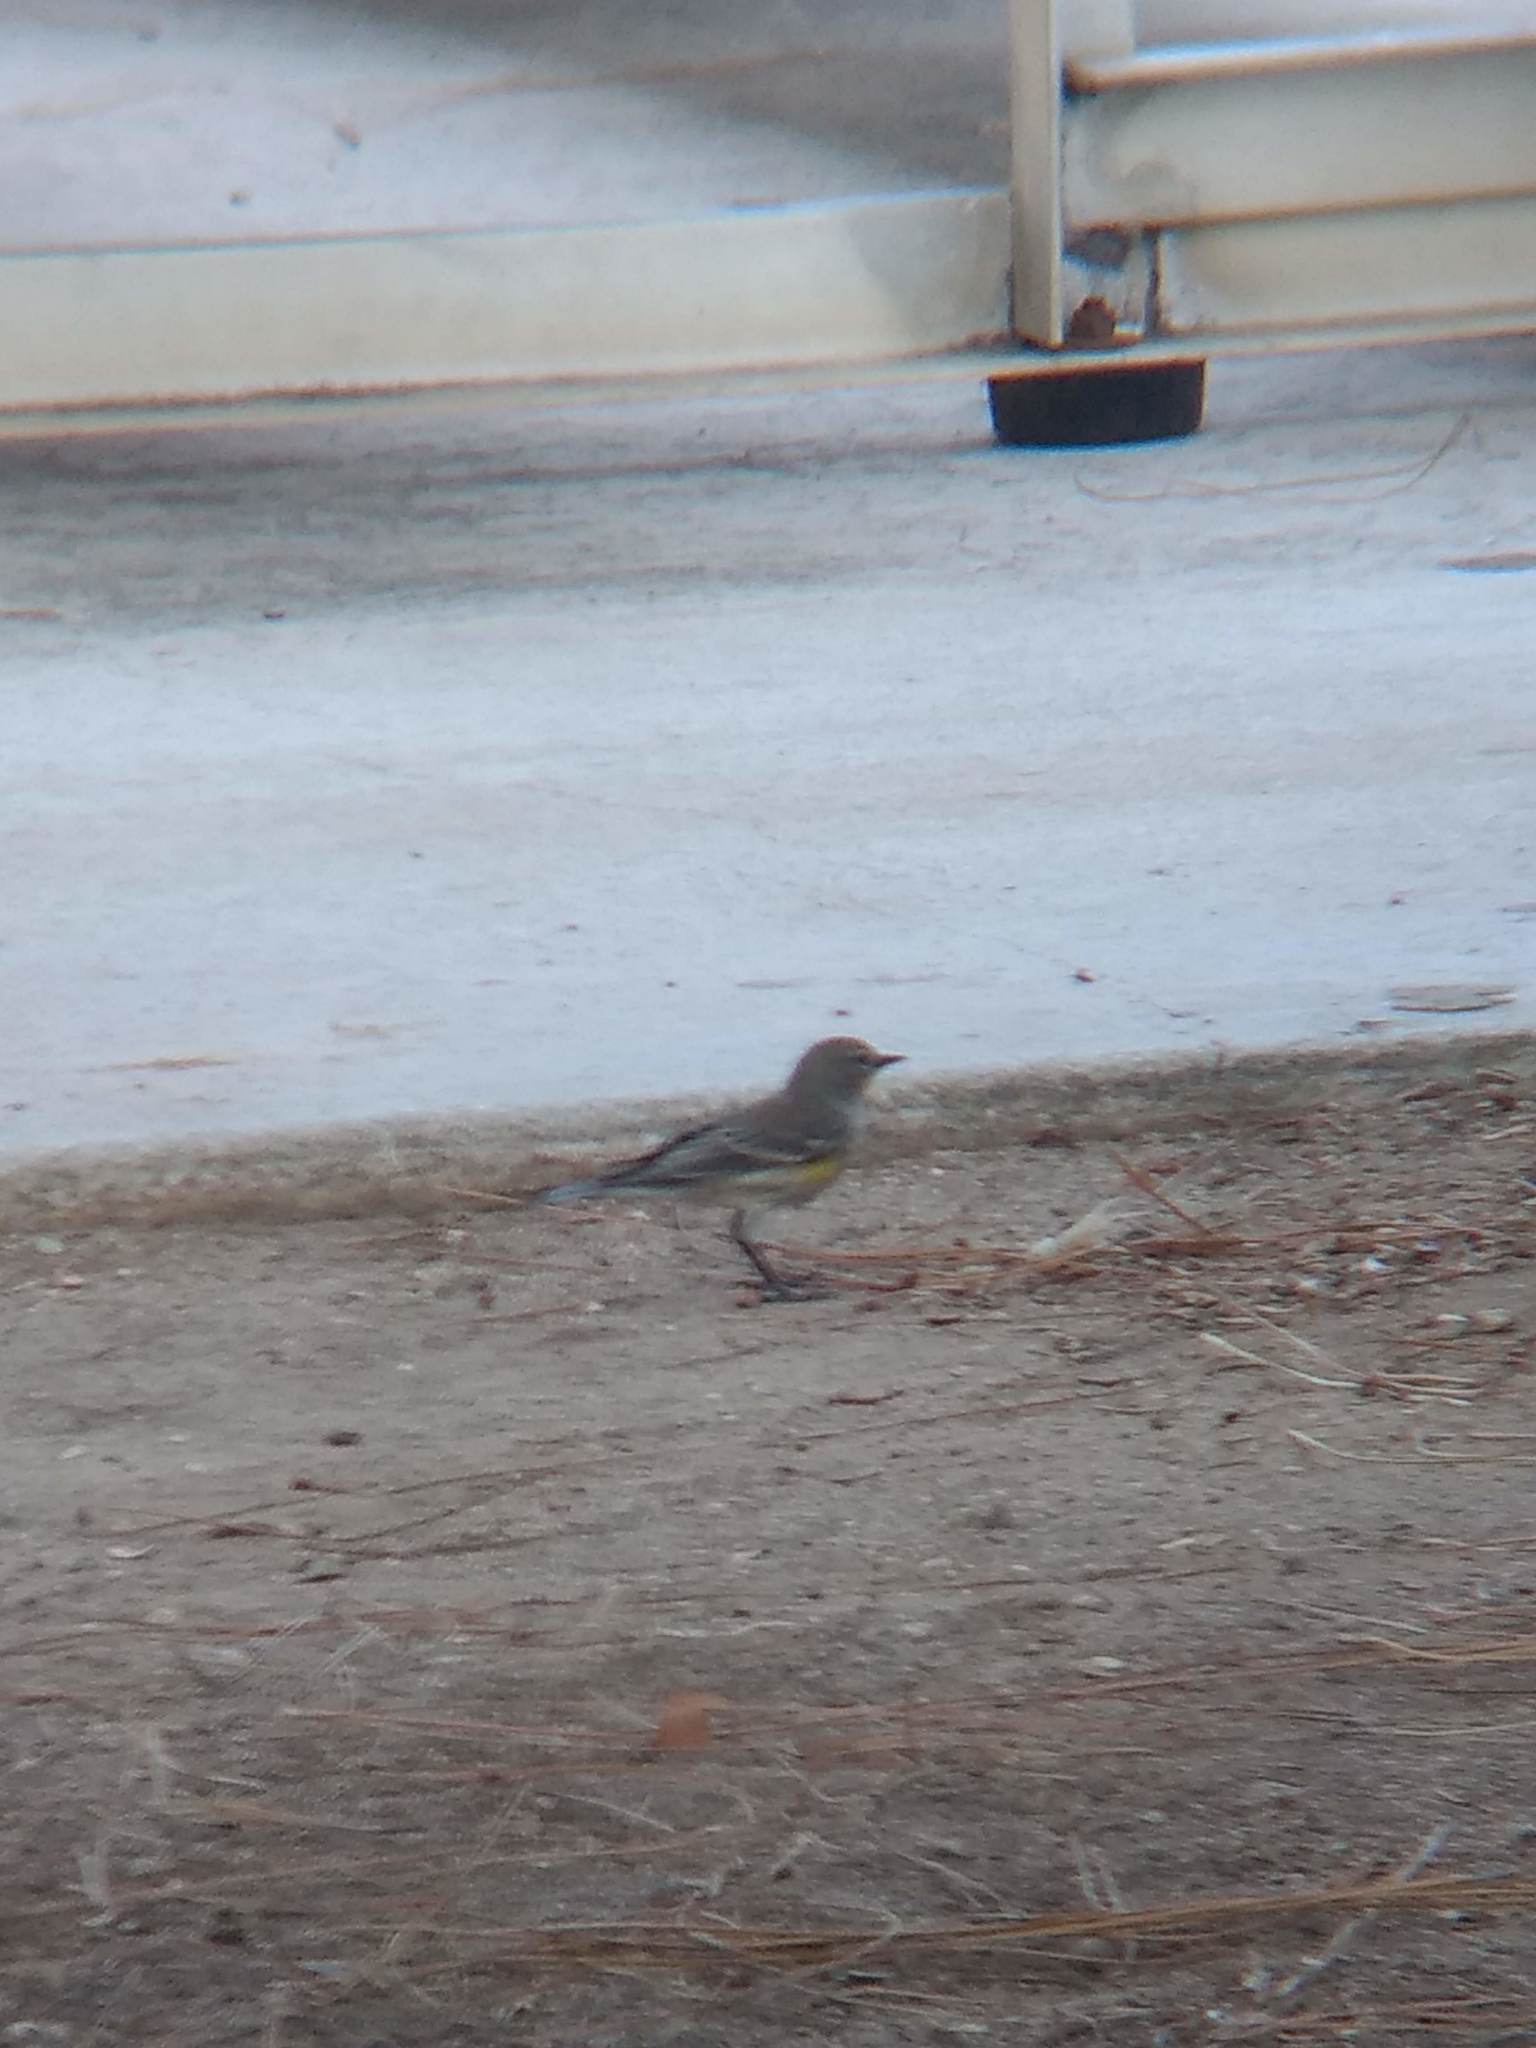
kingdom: Animalia
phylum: Chordata
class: Aves
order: Passeriformes
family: Parulidae
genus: Setophaga
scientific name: Setophaga coronata
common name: Myrtle warbler
